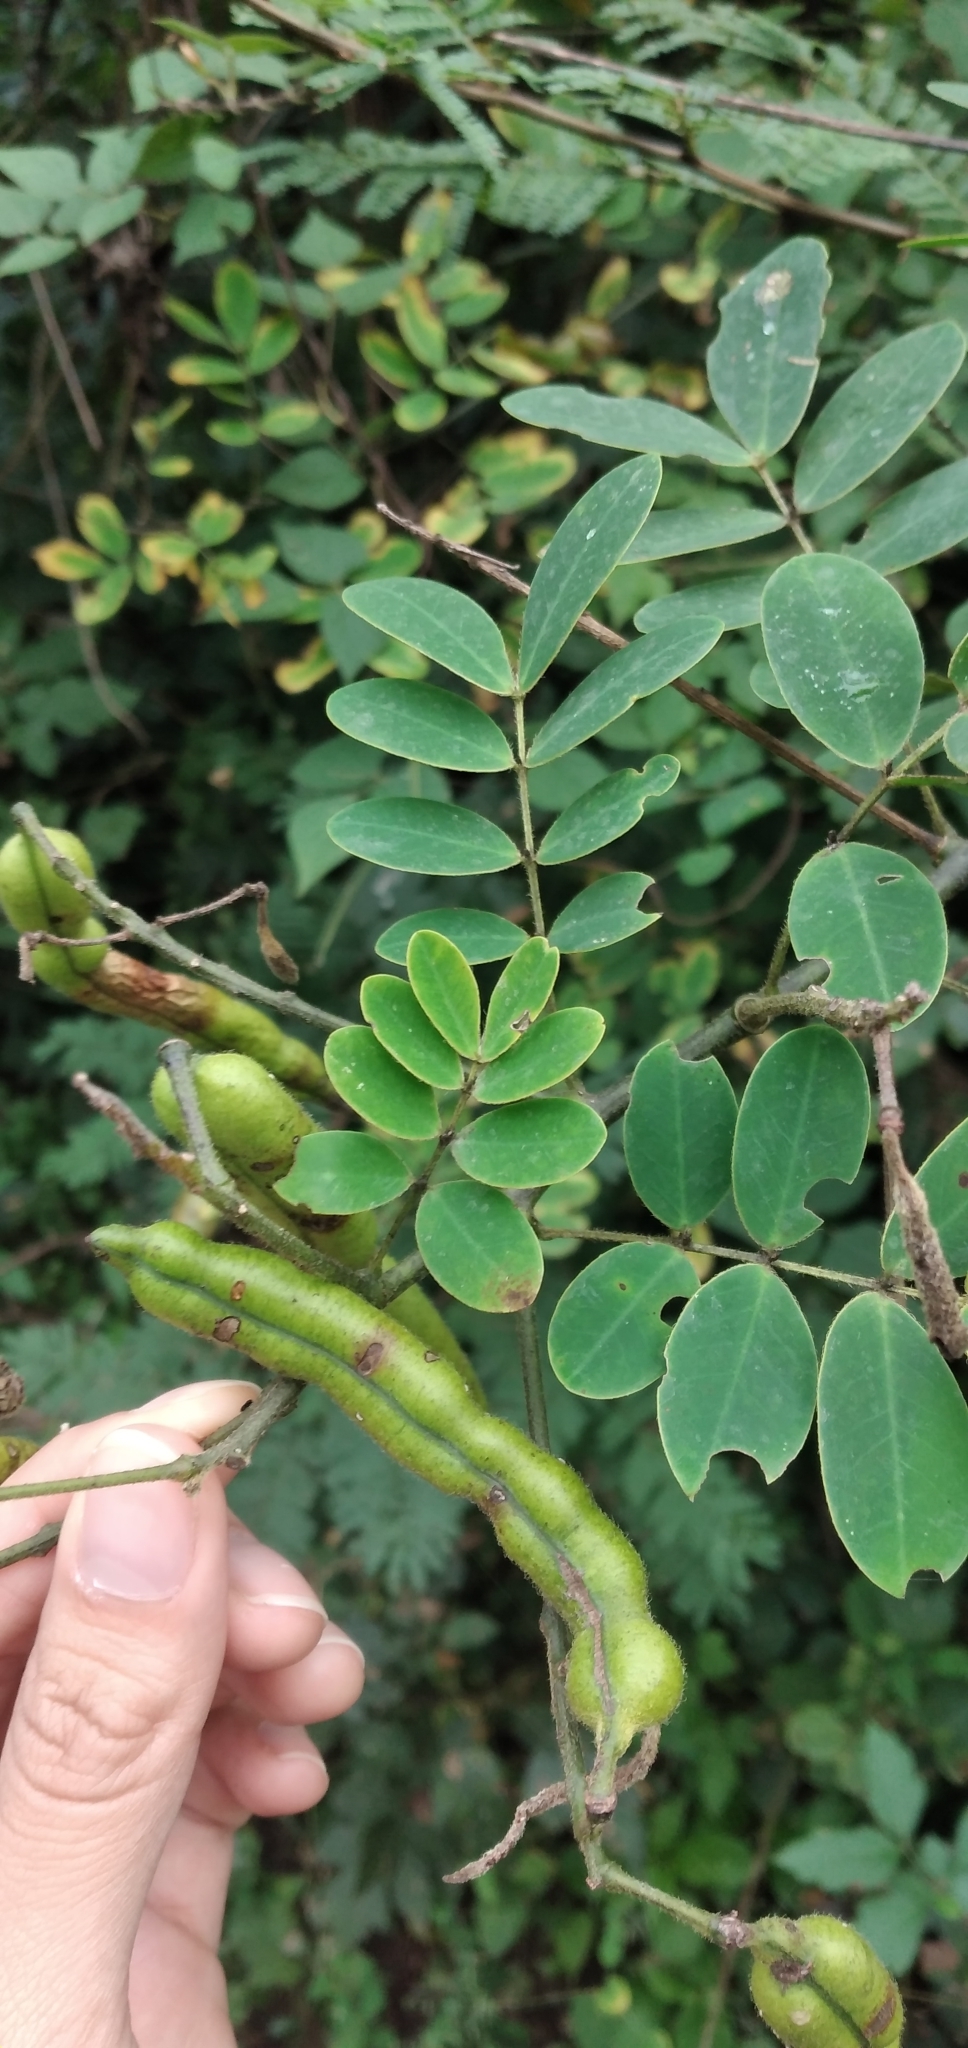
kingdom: Plantae
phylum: Tracheophyta
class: Magnoliopsida
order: Fabales
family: Fabaceae
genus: Senna
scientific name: Senna pendula
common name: Easter cassia
